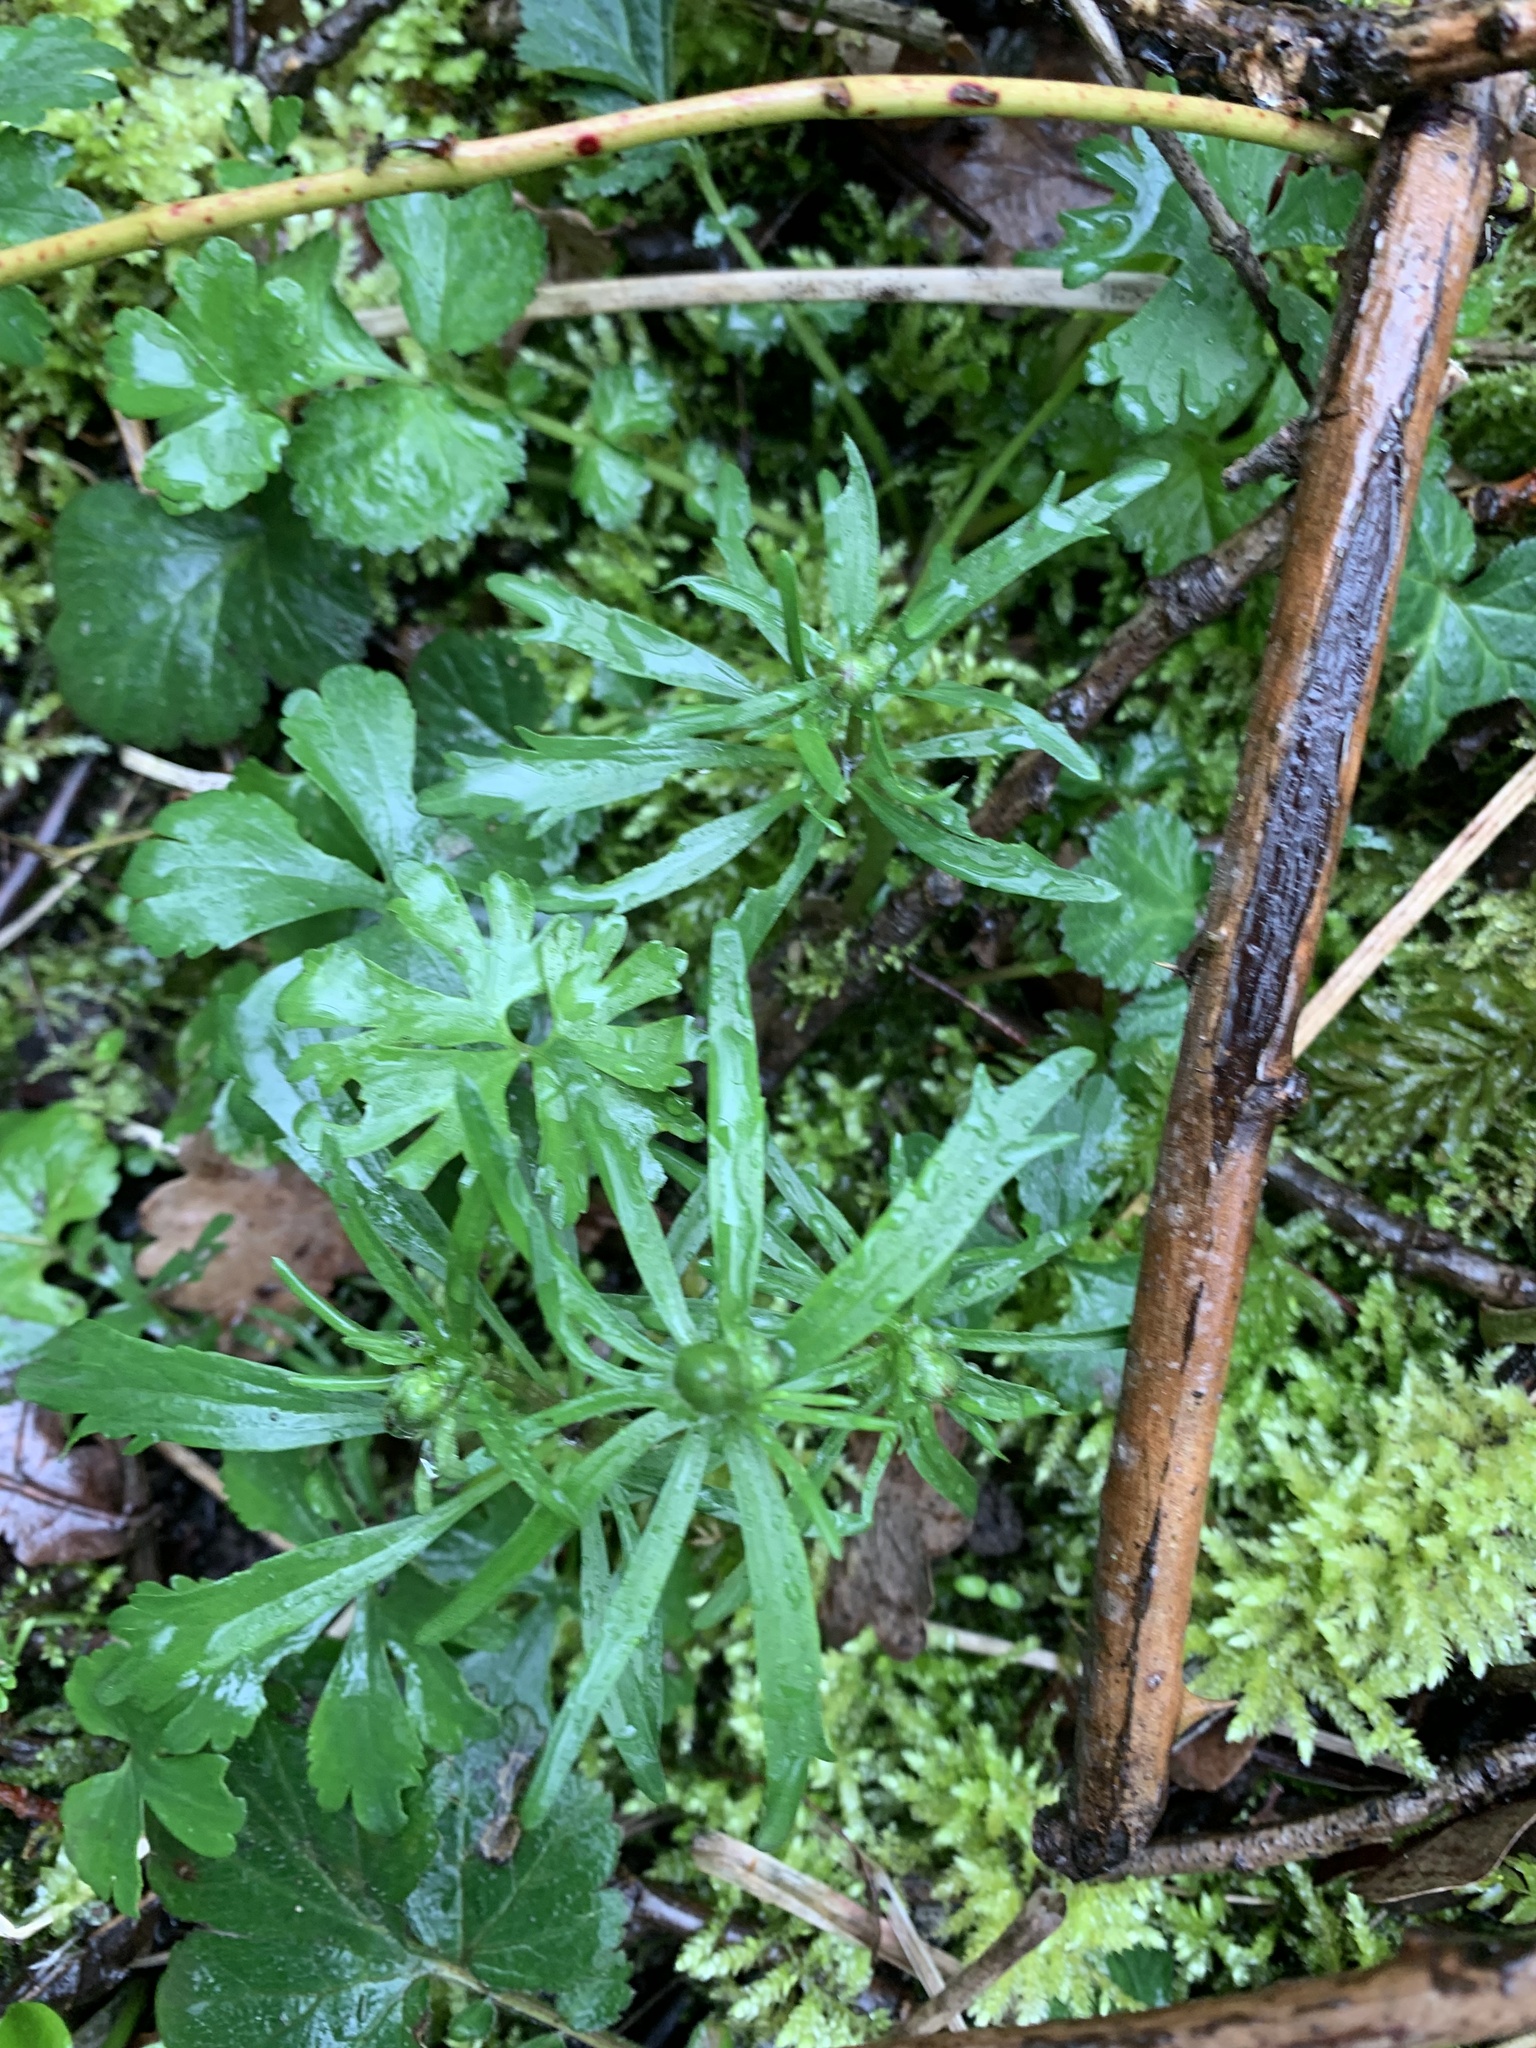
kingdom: Plantae
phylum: Tracheophyta
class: Magnoliopsida
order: Ranunculales
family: Ranunculaceae
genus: Ranunculus
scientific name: Ranunculus auricomus
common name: Goldilocks buttercup
